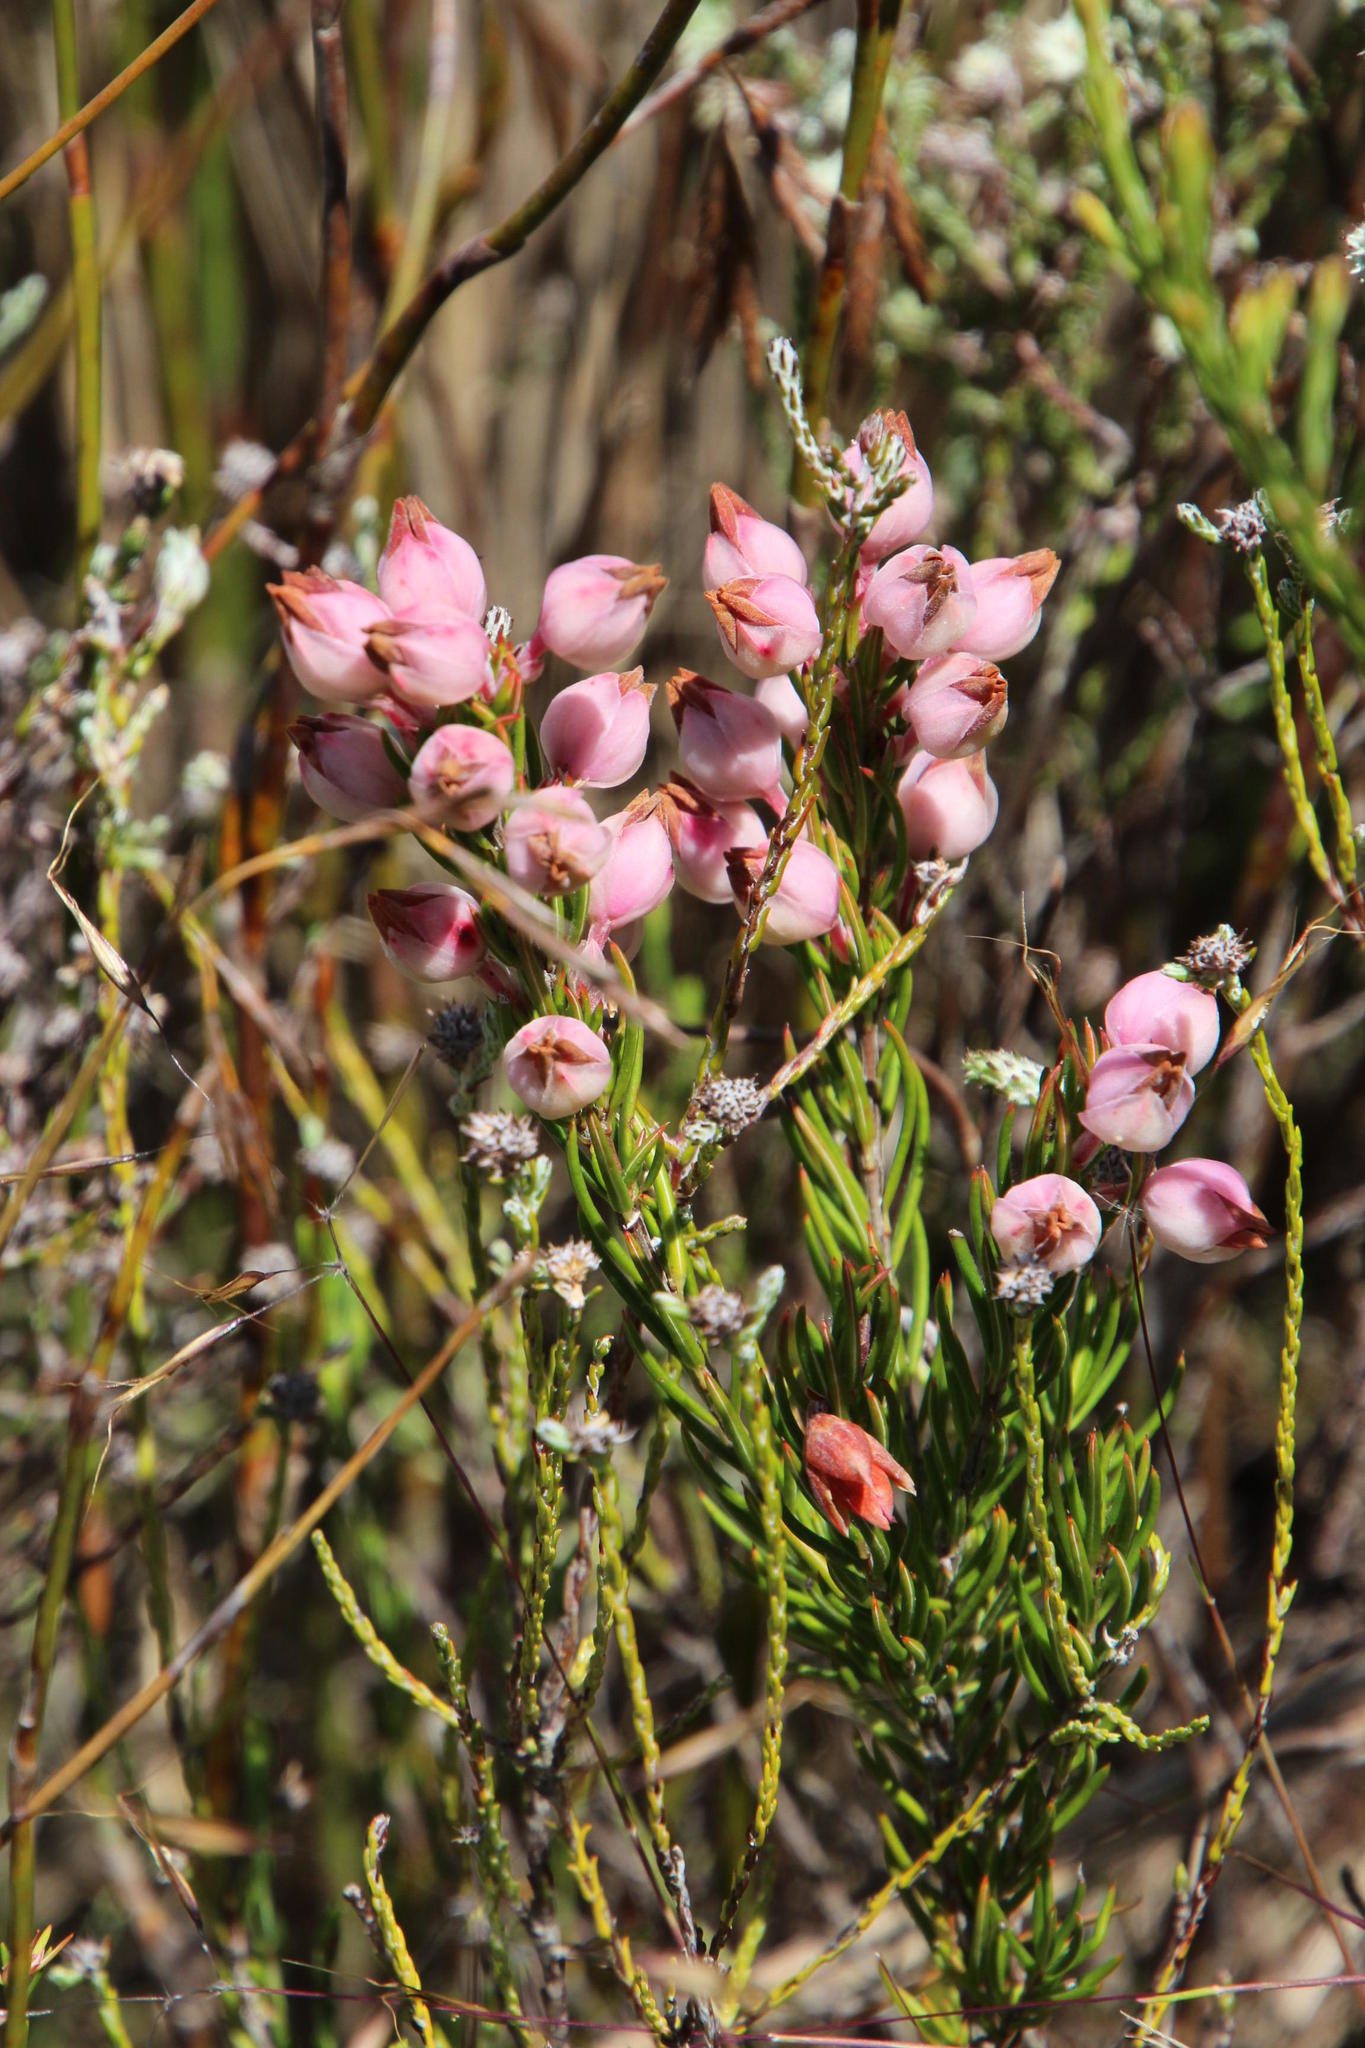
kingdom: Plantae
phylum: Tracheophyta
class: Magnoliopsida
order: Ericales
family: Ericaceae
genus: Erica
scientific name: Erica holosericea
